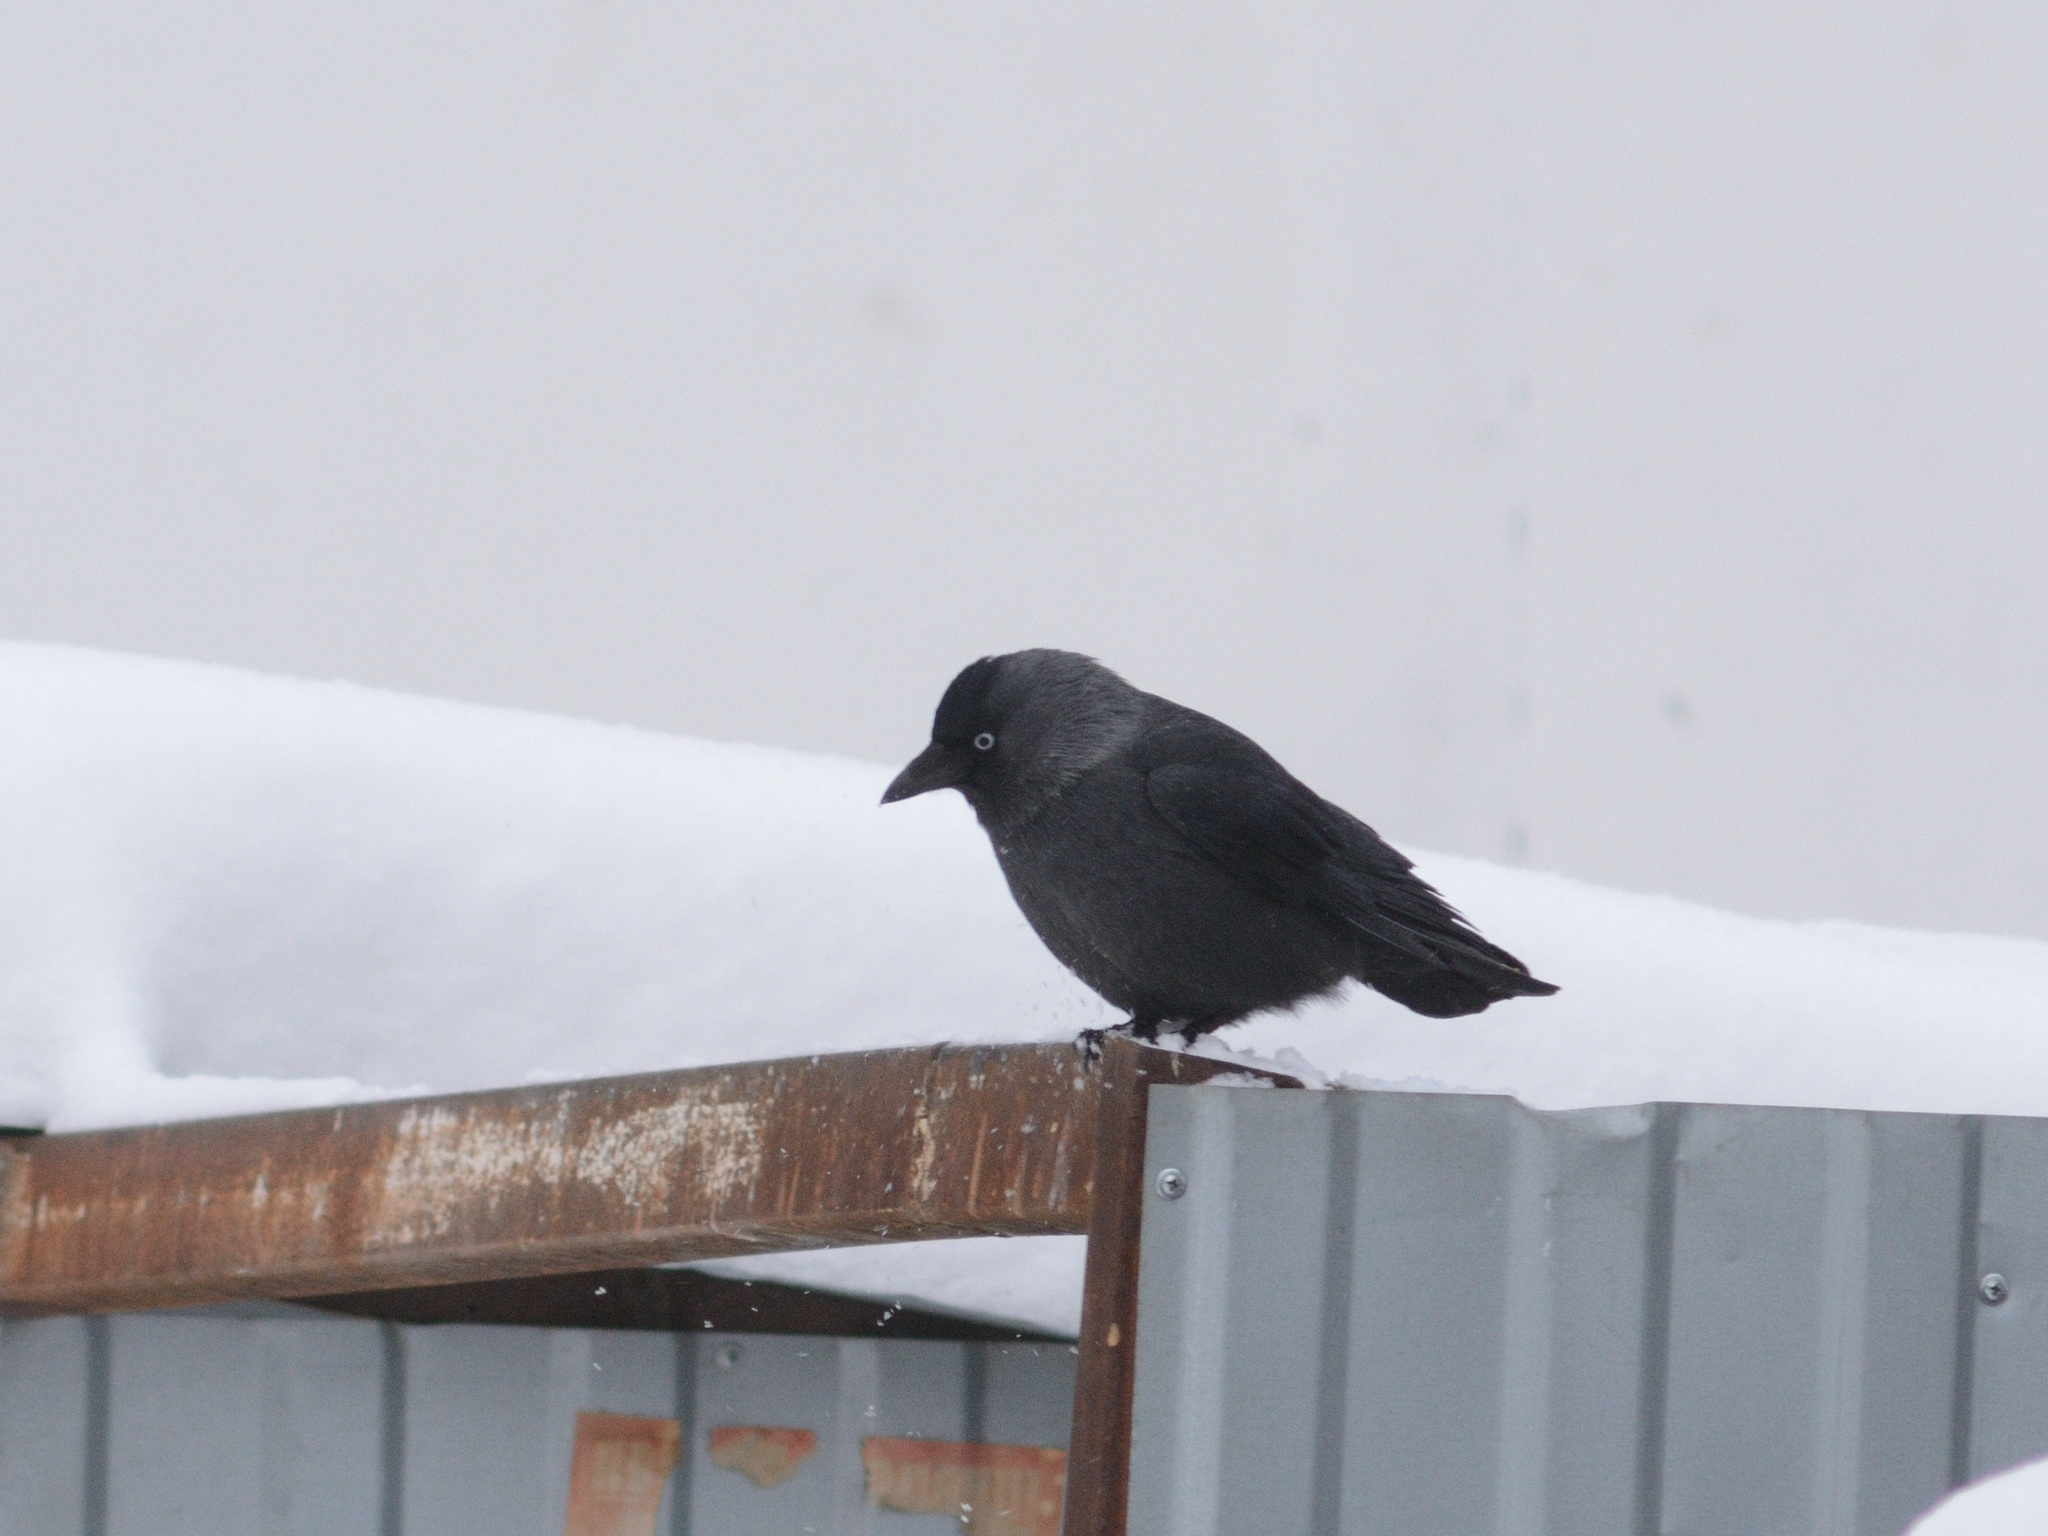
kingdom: Animalia
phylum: Chordata
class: Aves
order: Passeriformes
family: Corvidae
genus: Coloeus
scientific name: Coloeus monedula
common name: Western jackdaw
